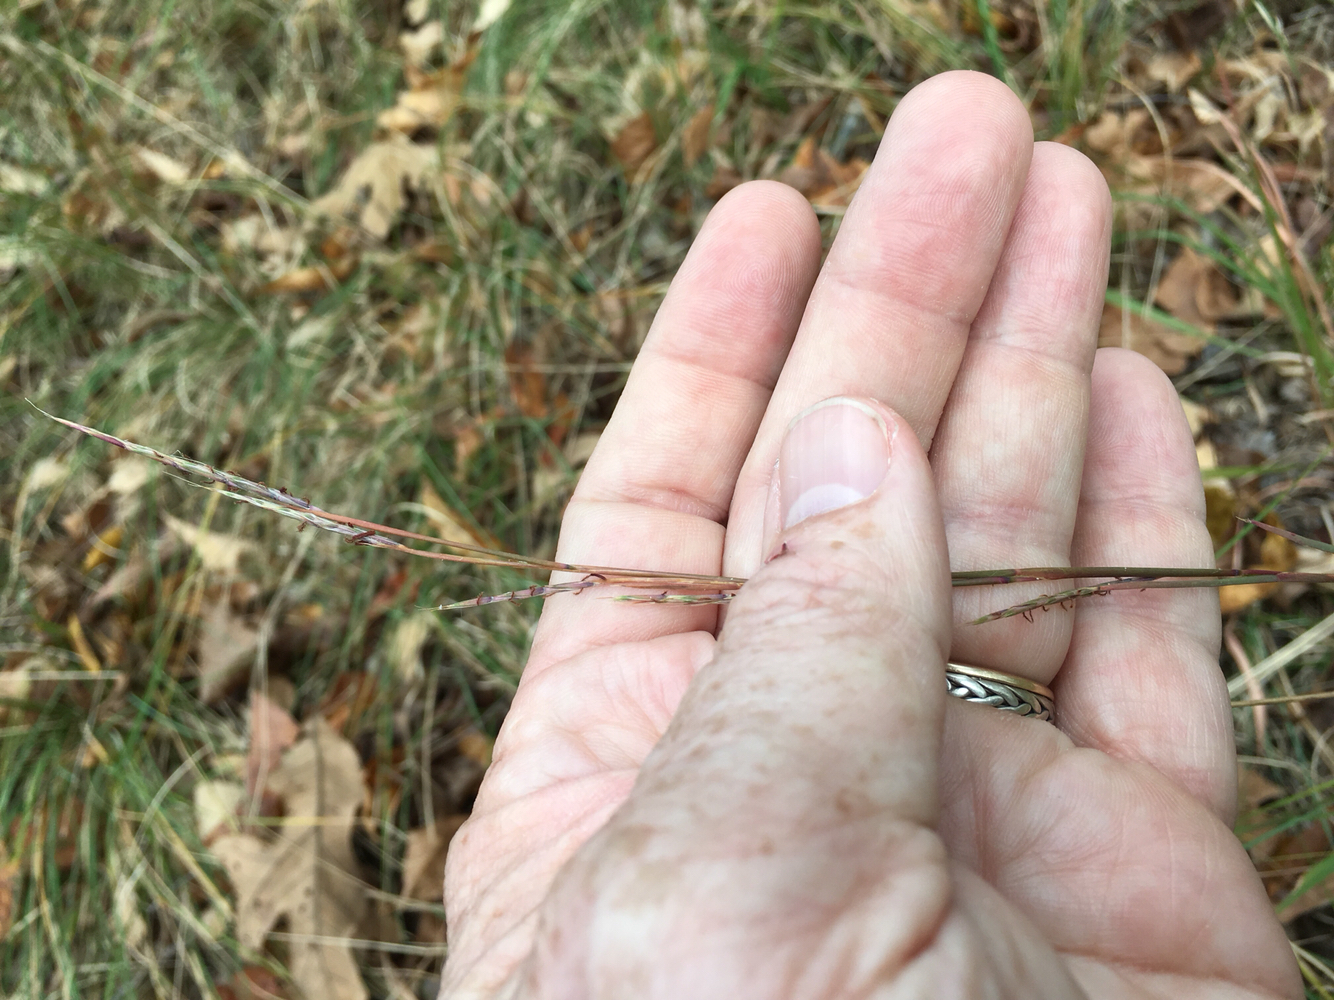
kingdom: Plantae
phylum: Tracheophyta
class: Liliopsida
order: Poales
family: Poaceae
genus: Schizachyrium
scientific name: Schizachyrium scoparium
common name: Little bluestem
